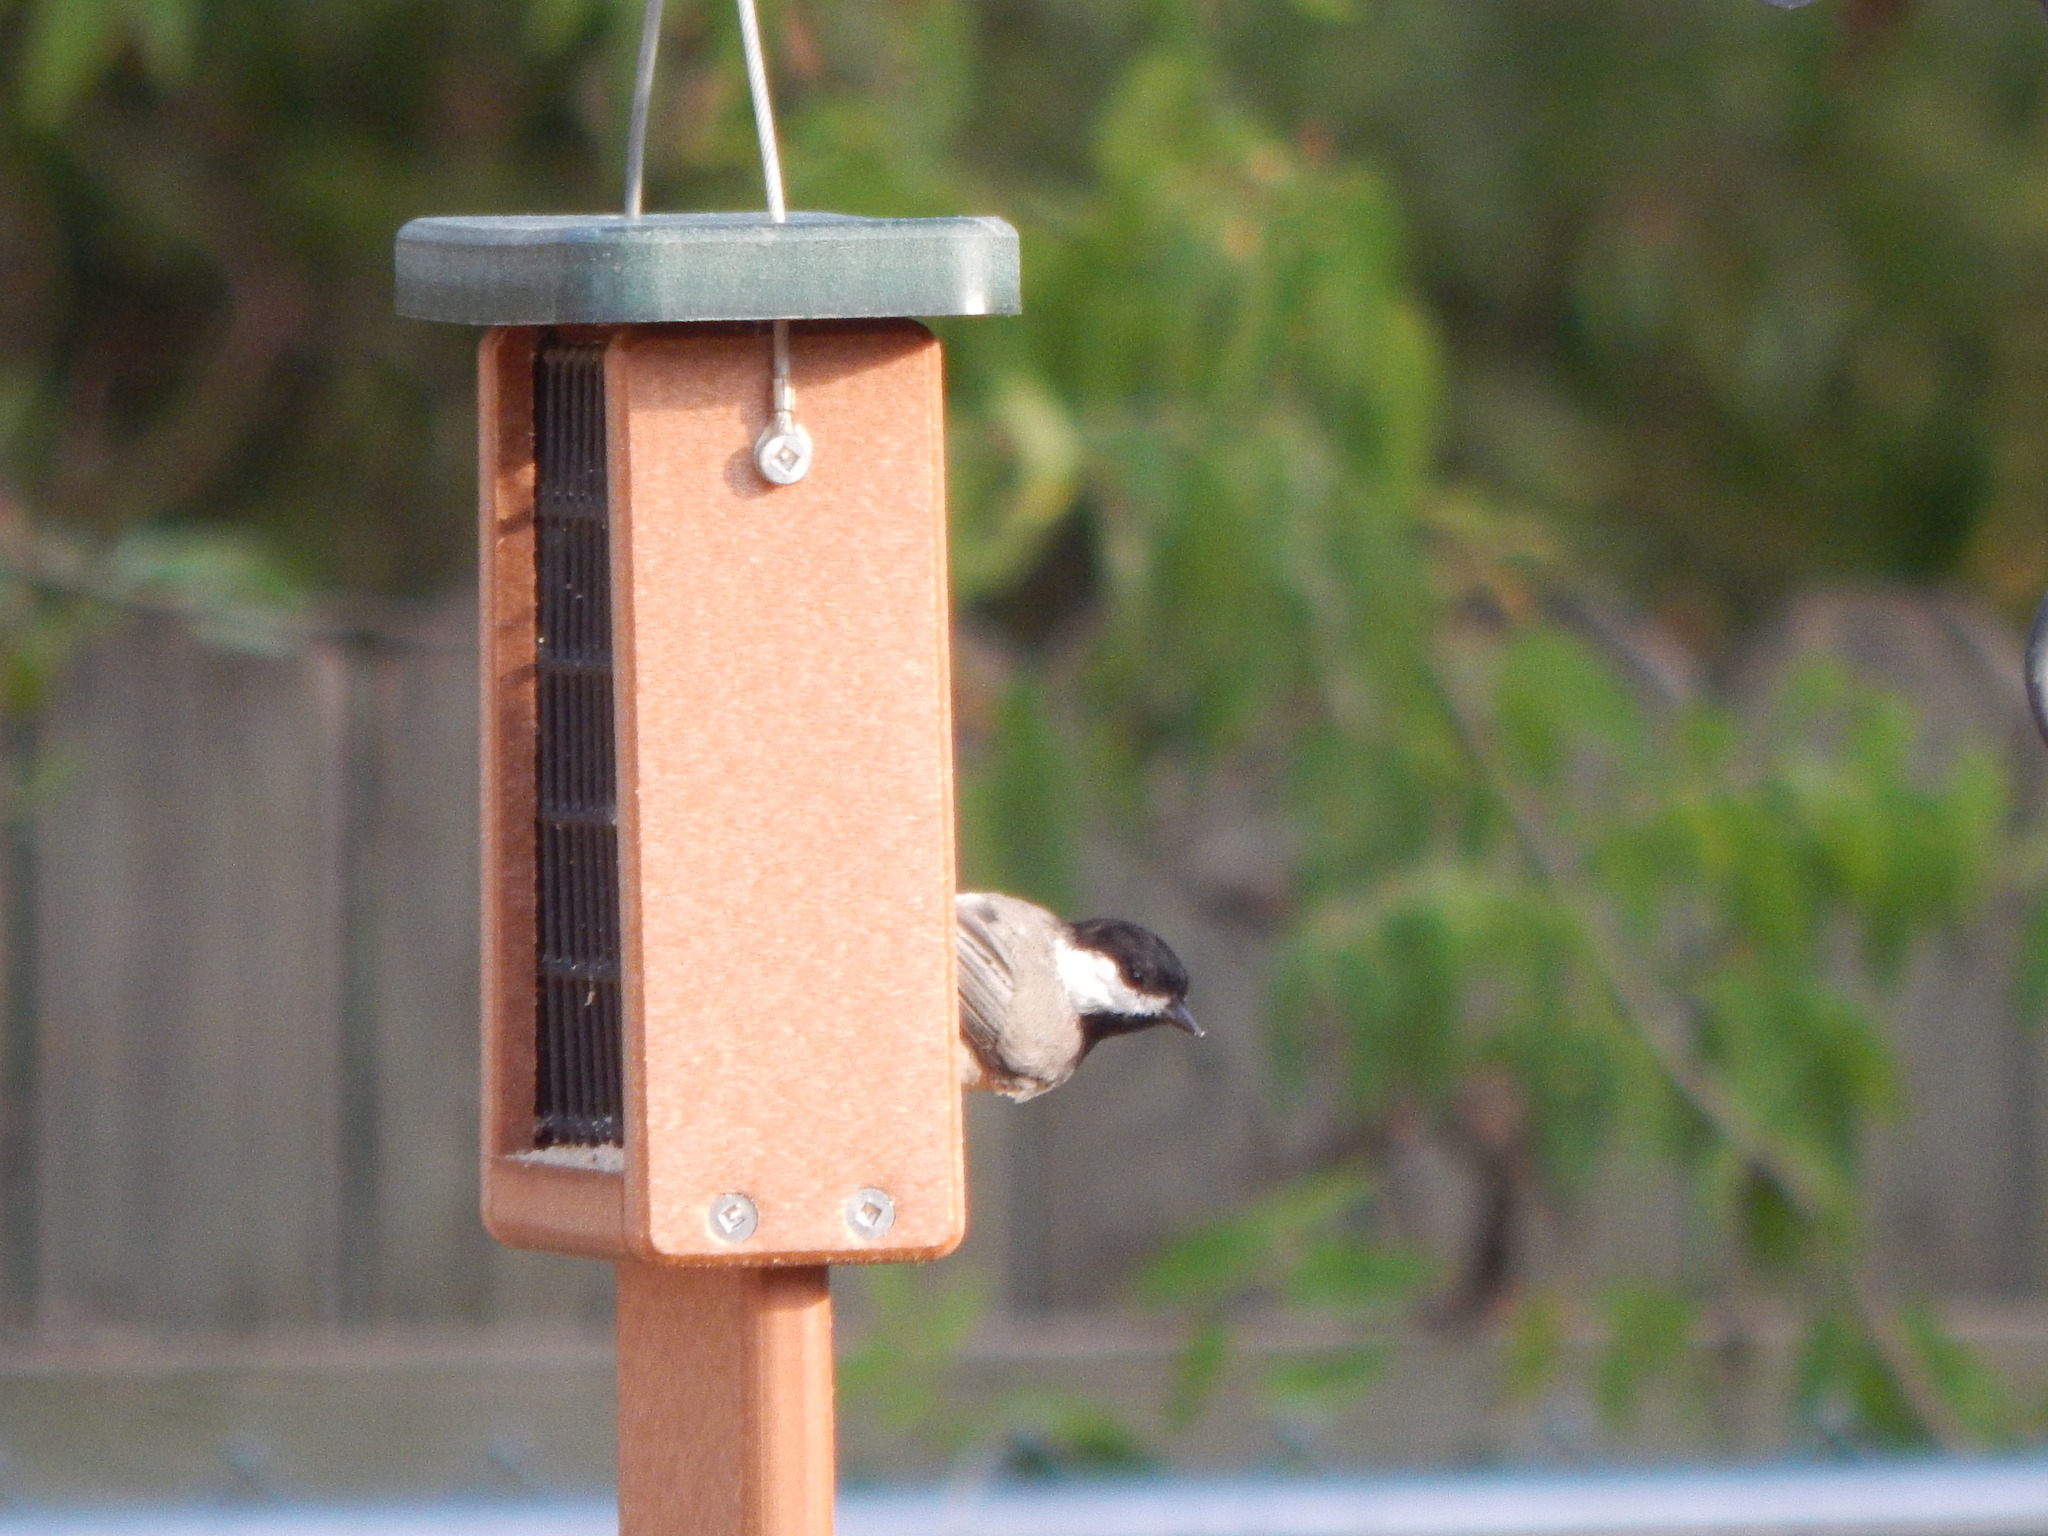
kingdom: Animalia
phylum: Chordata
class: Aves
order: Passeriformes
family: Paridae
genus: Poecile
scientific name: Poecile carolinensis
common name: Carolina chickadee
